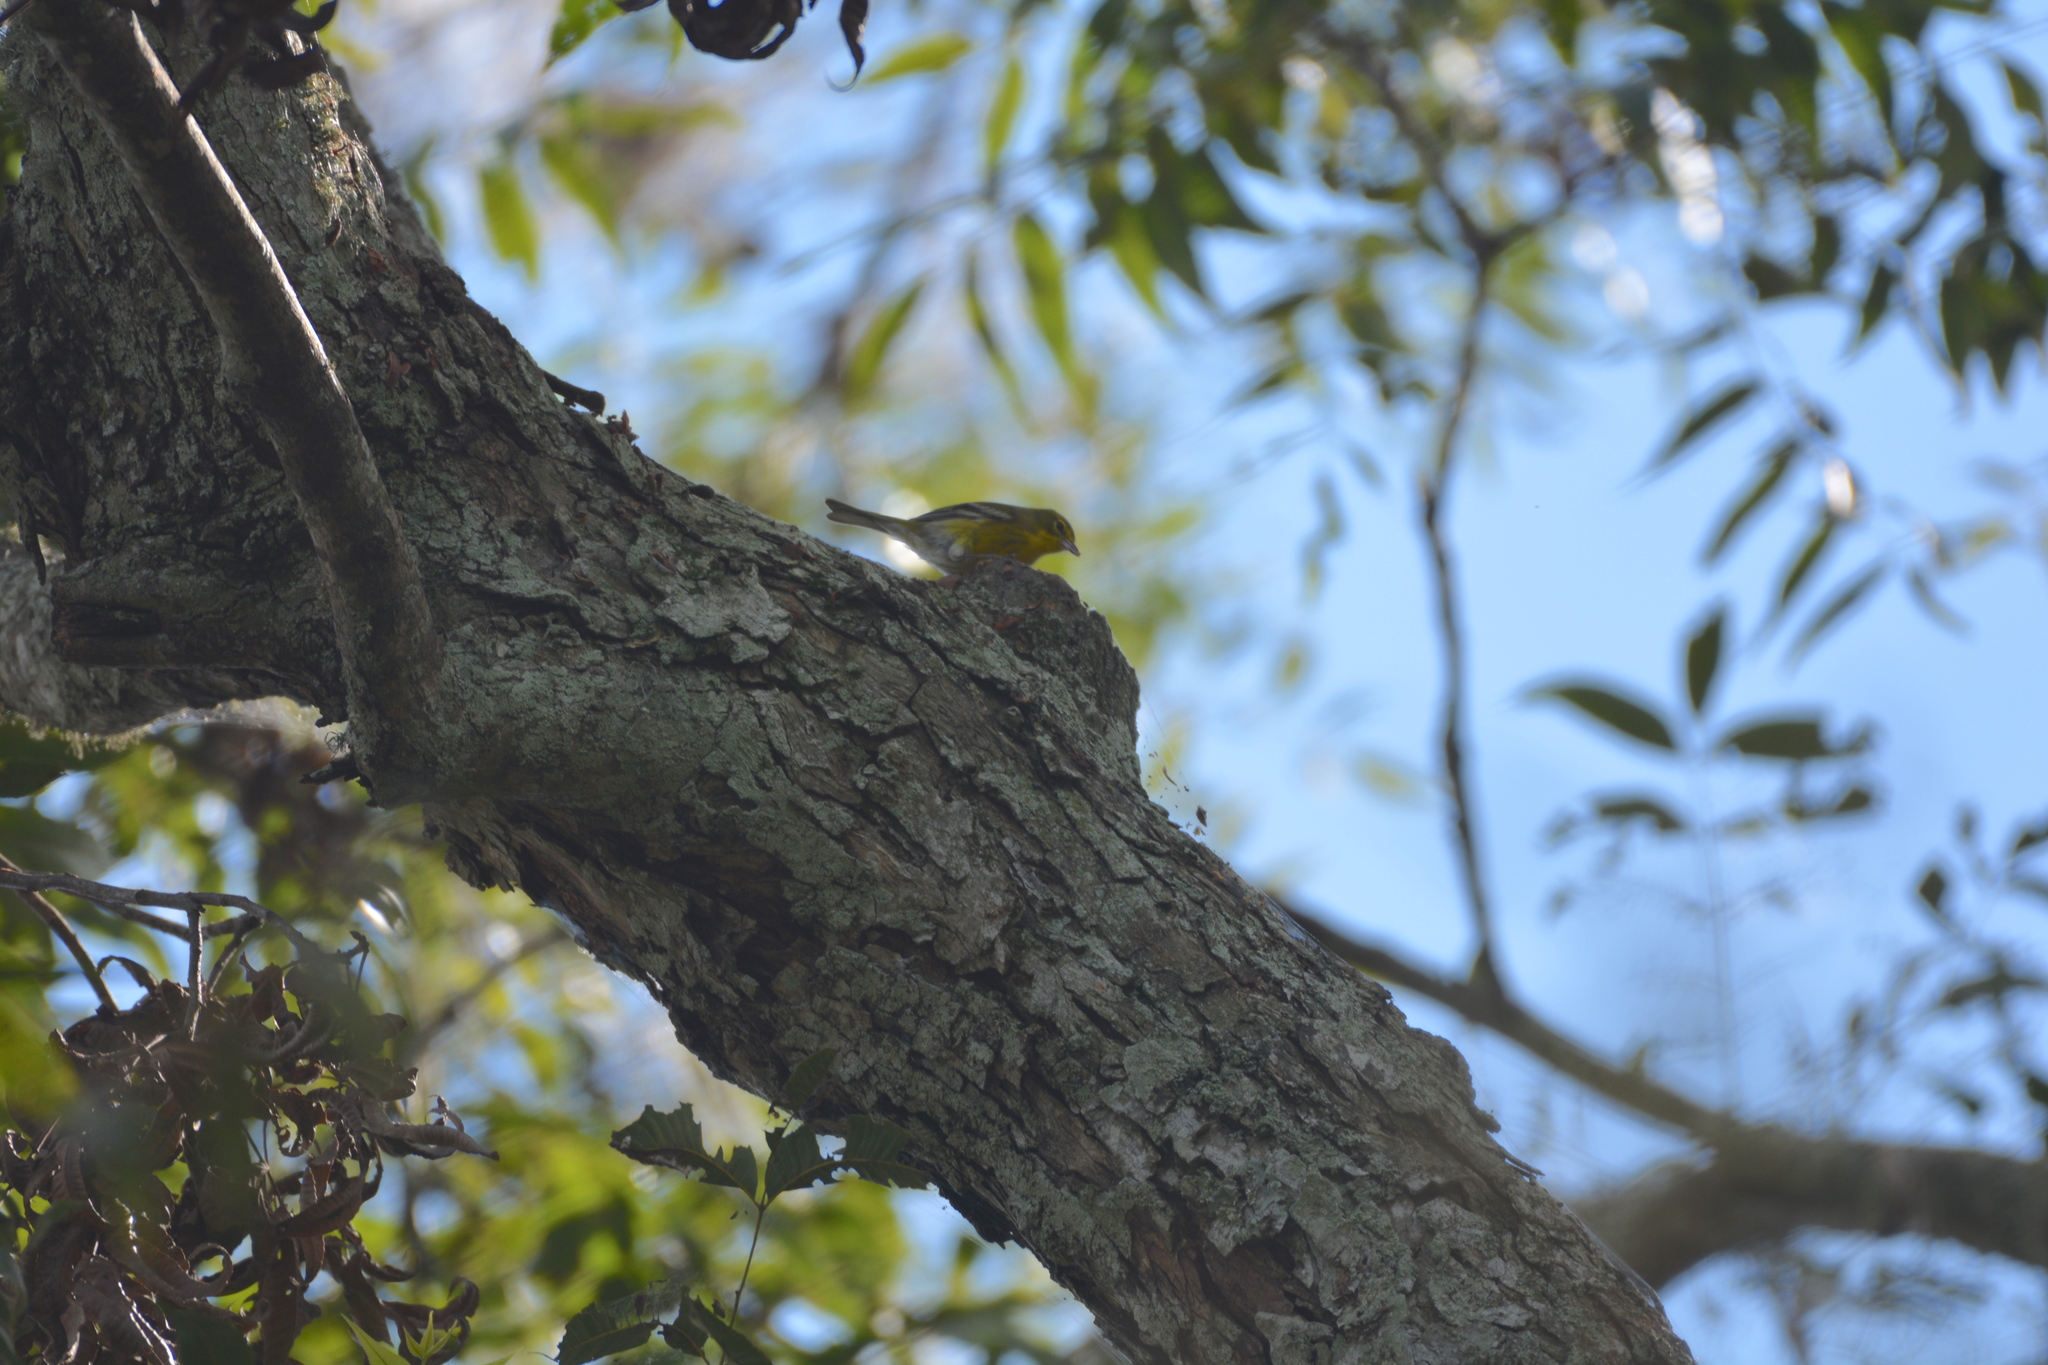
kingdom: Animalia
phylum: Chordata
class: Aves
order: Passeriformes
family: Parulidae
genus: Setophaga
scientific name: Setophaga pinus
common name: Pine warbler
